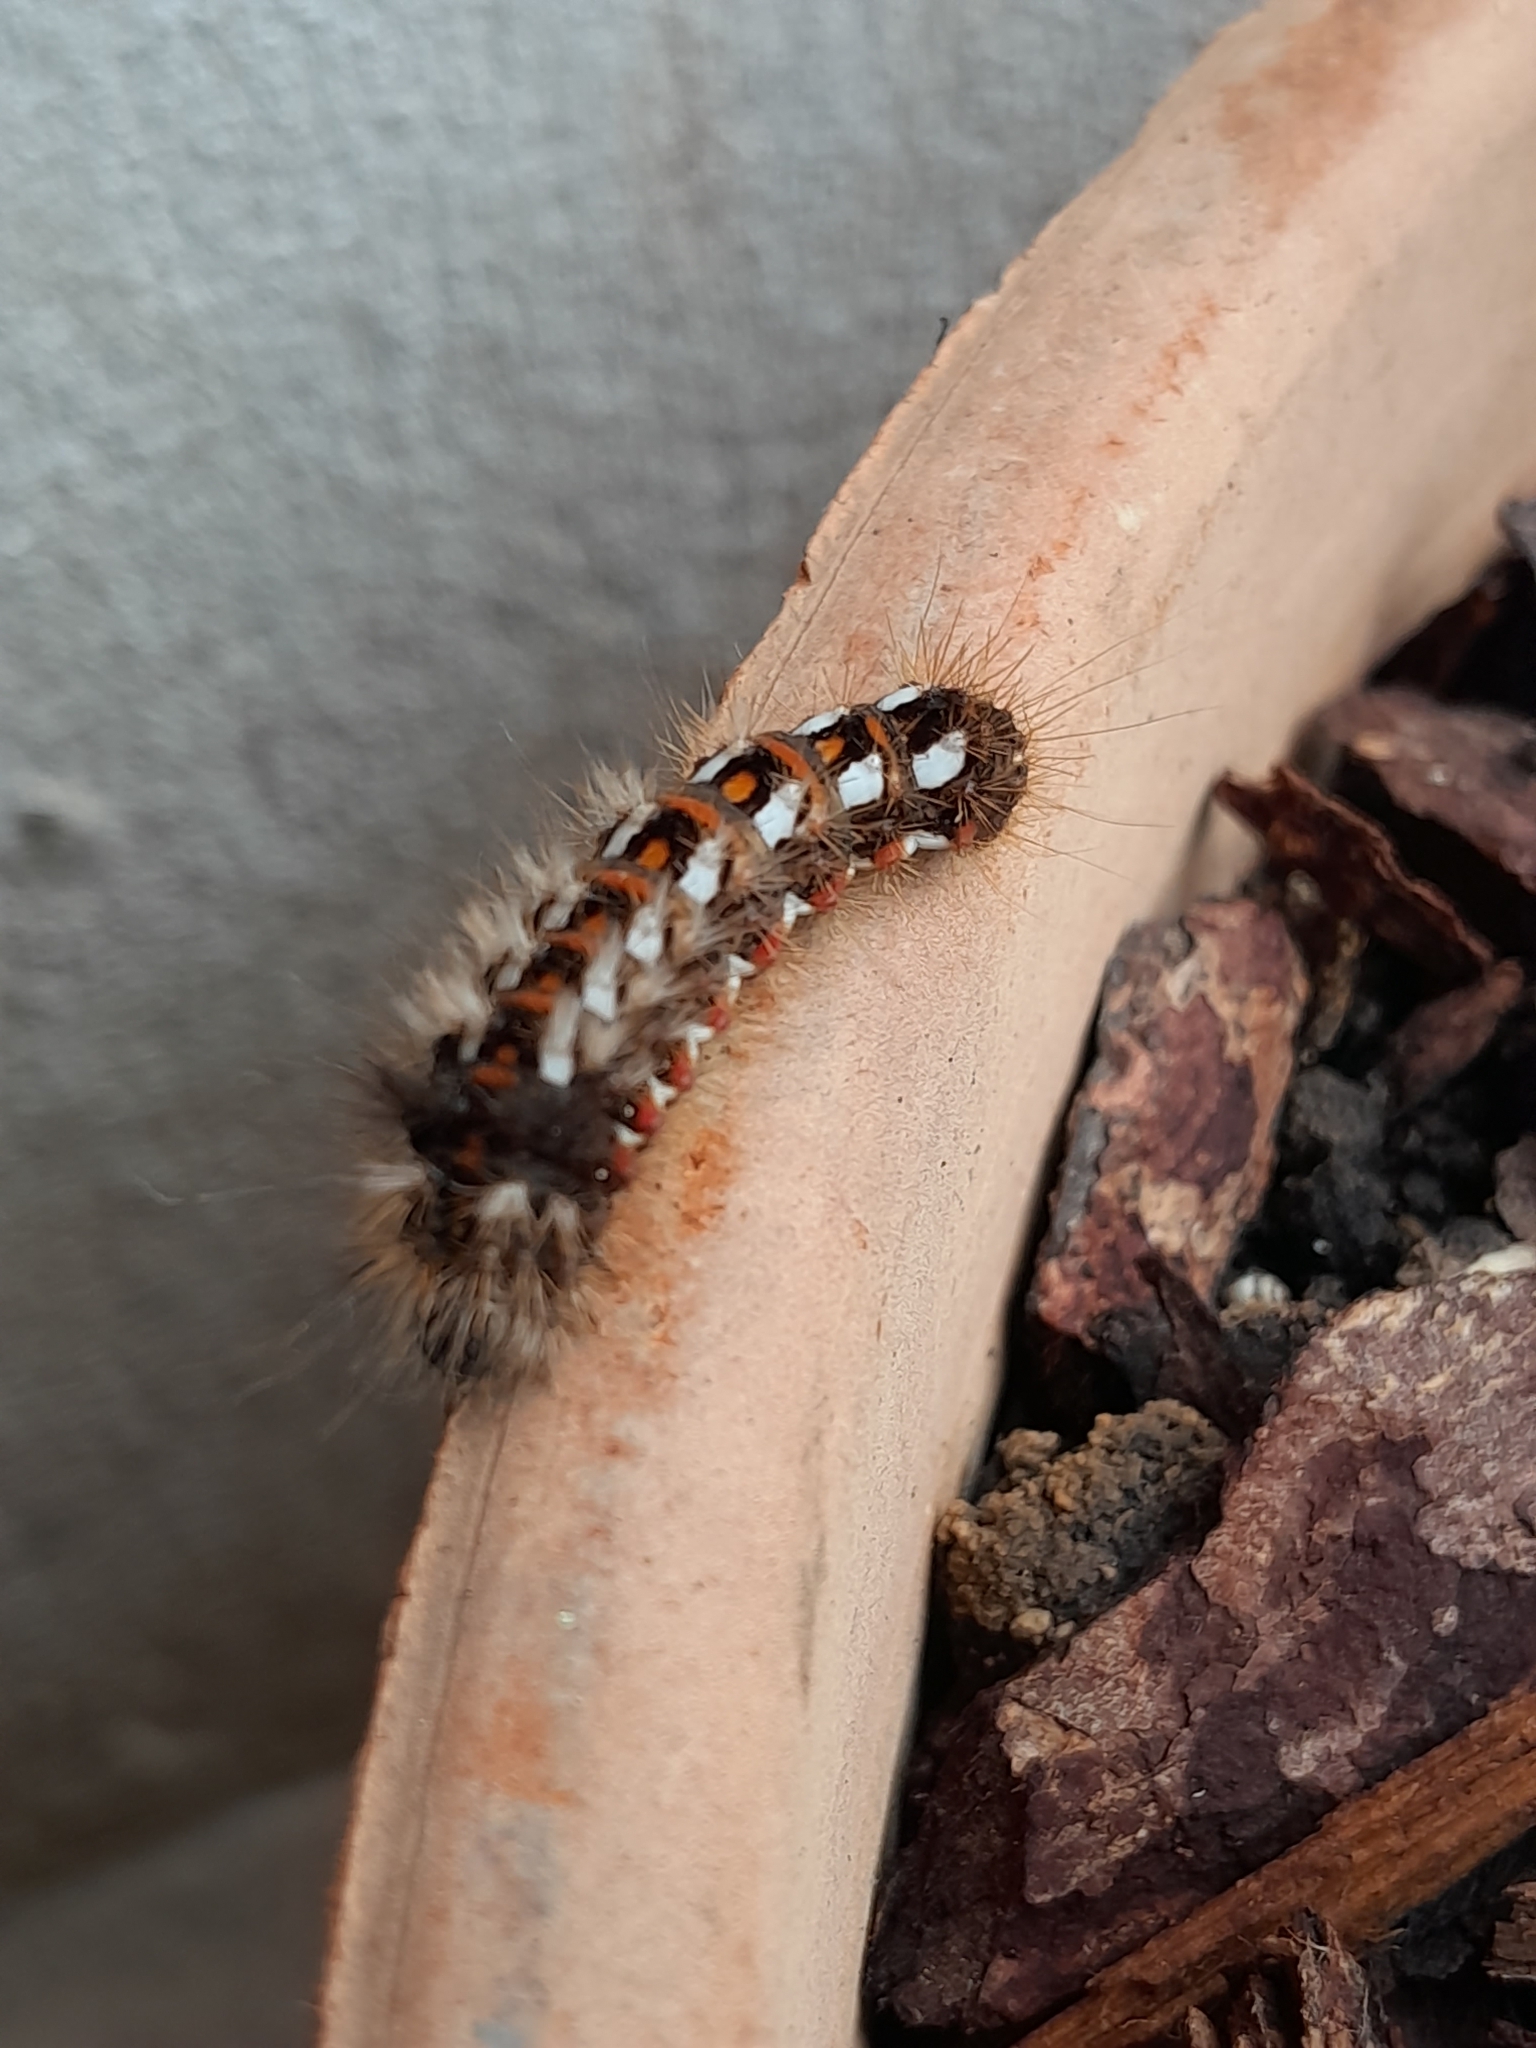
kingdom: Animalia
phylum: Arthropoda
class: Insecta
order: Lepidoptera
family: Noctuidae
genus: Acronicta
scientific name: Acronicta rumicis
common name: Knot grass
